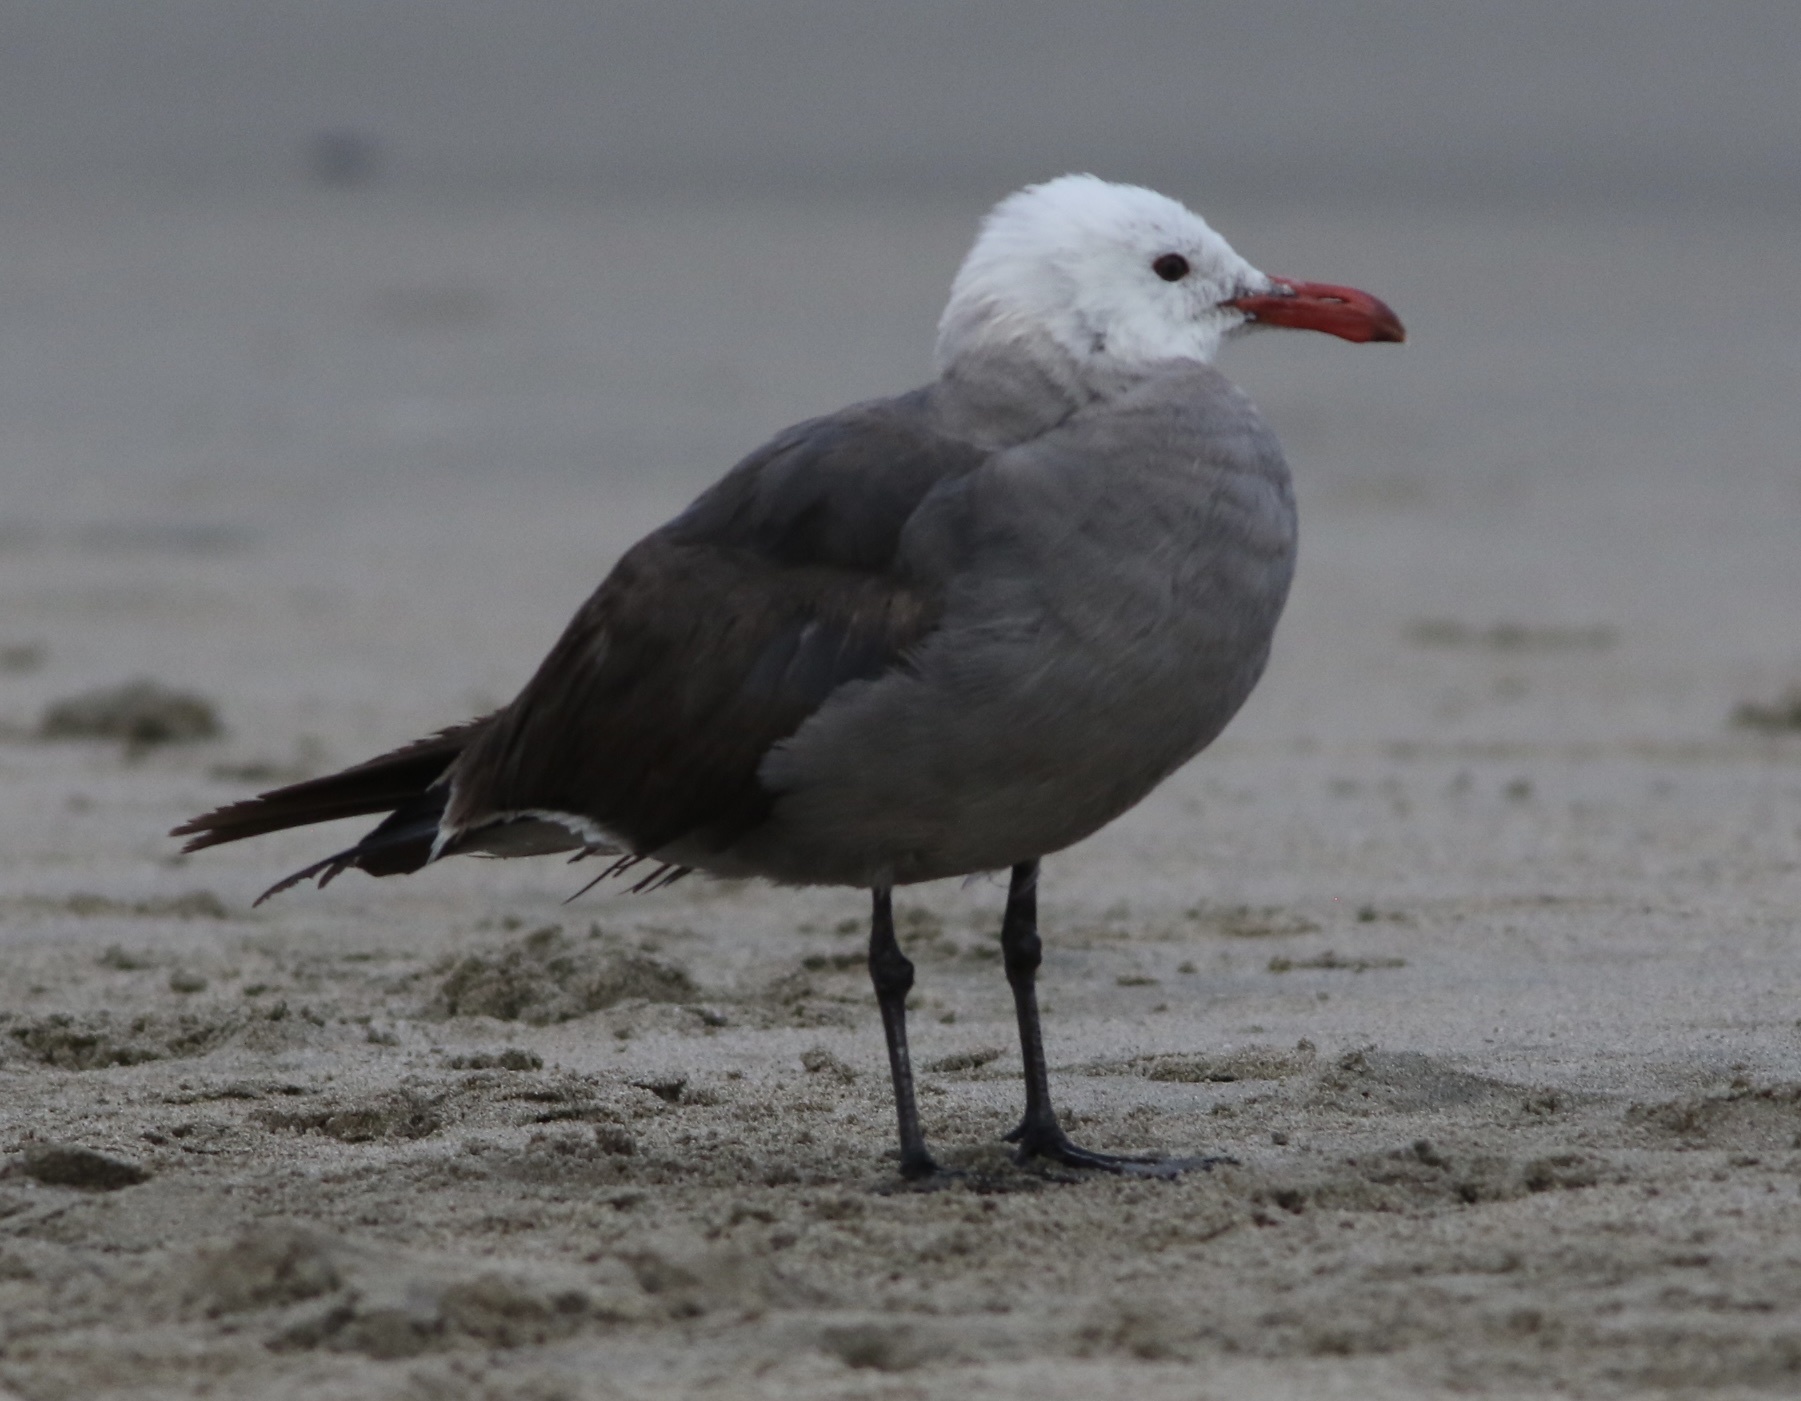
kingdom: Animalia
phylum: Chordata
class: Aves
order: Charadriiformes
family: Laridae
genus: Larus
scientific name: Larus heermanni
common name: Heermann's gull
